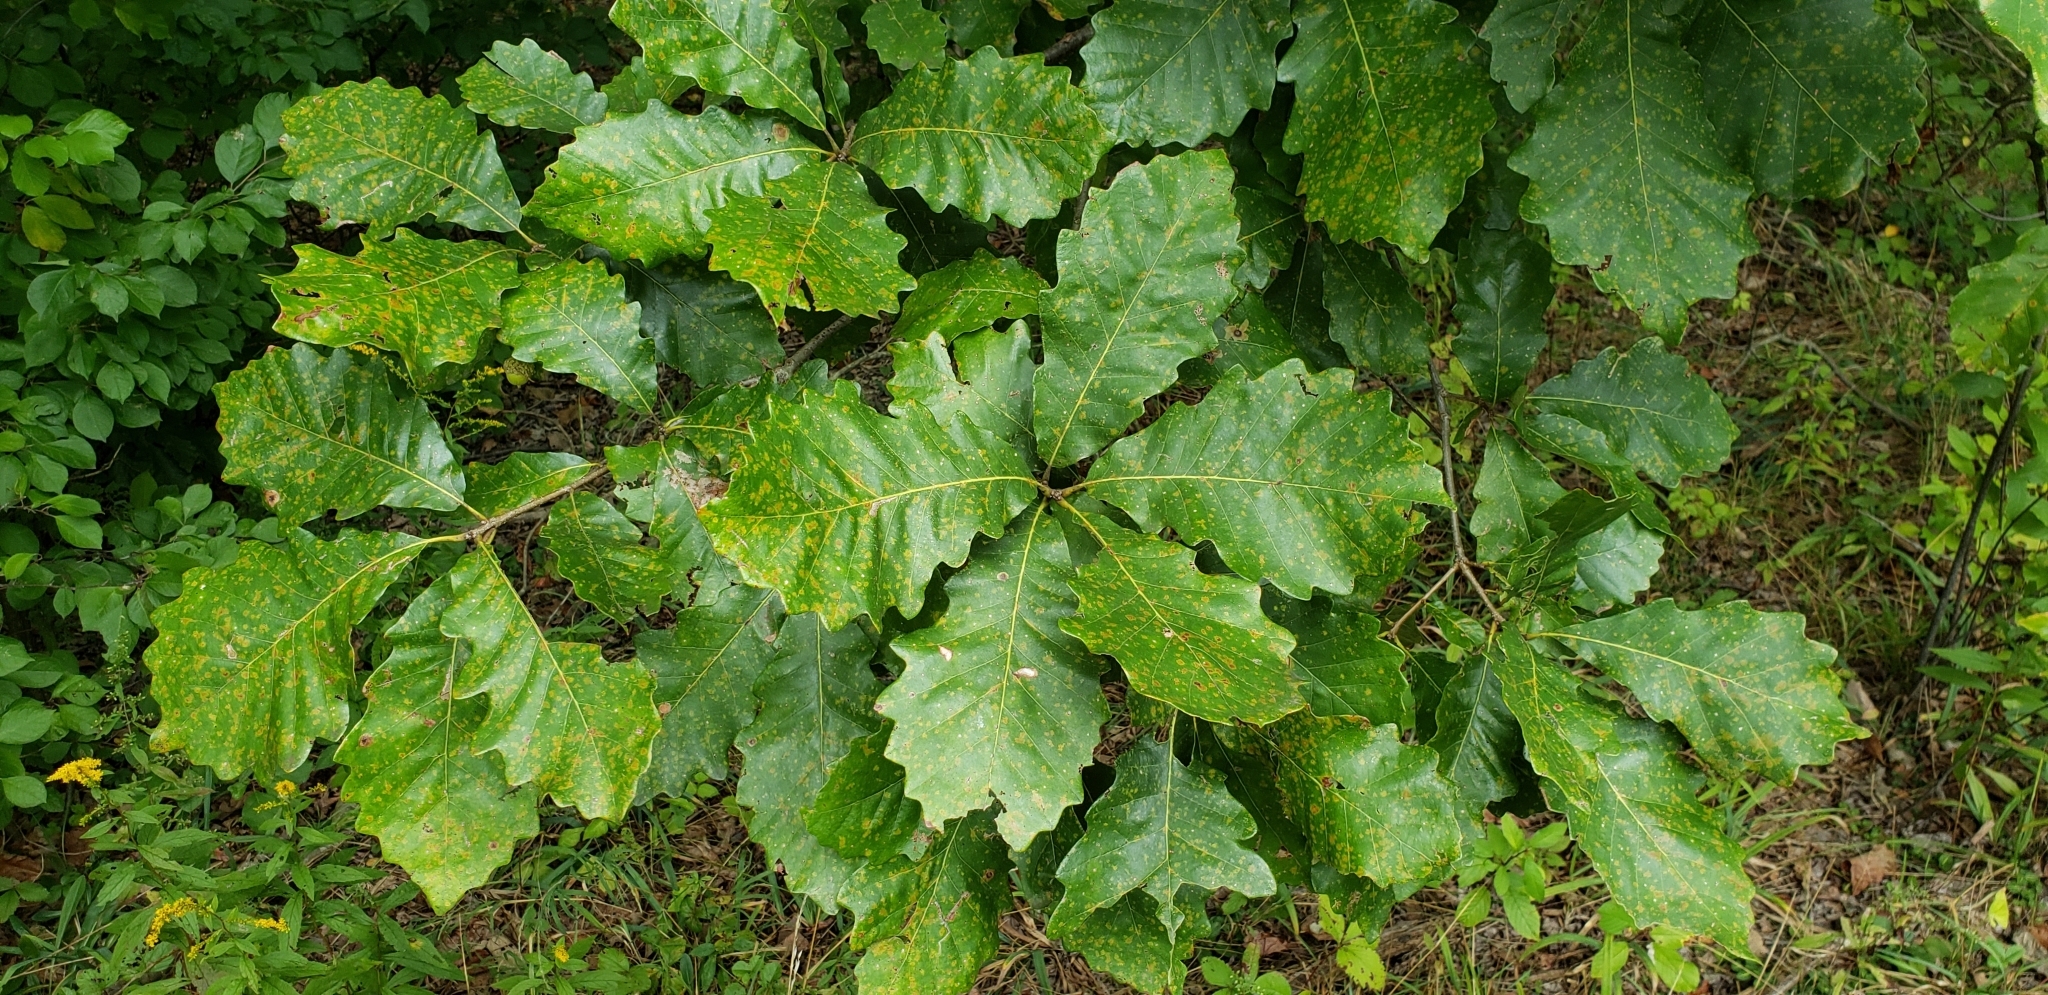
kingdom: Plantae
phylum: Tracheophyta
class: Magnoliopsida
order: Fagales
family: Fagaceae
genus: Quercus
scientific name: Quercus bicolor
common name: Swamp white oak
